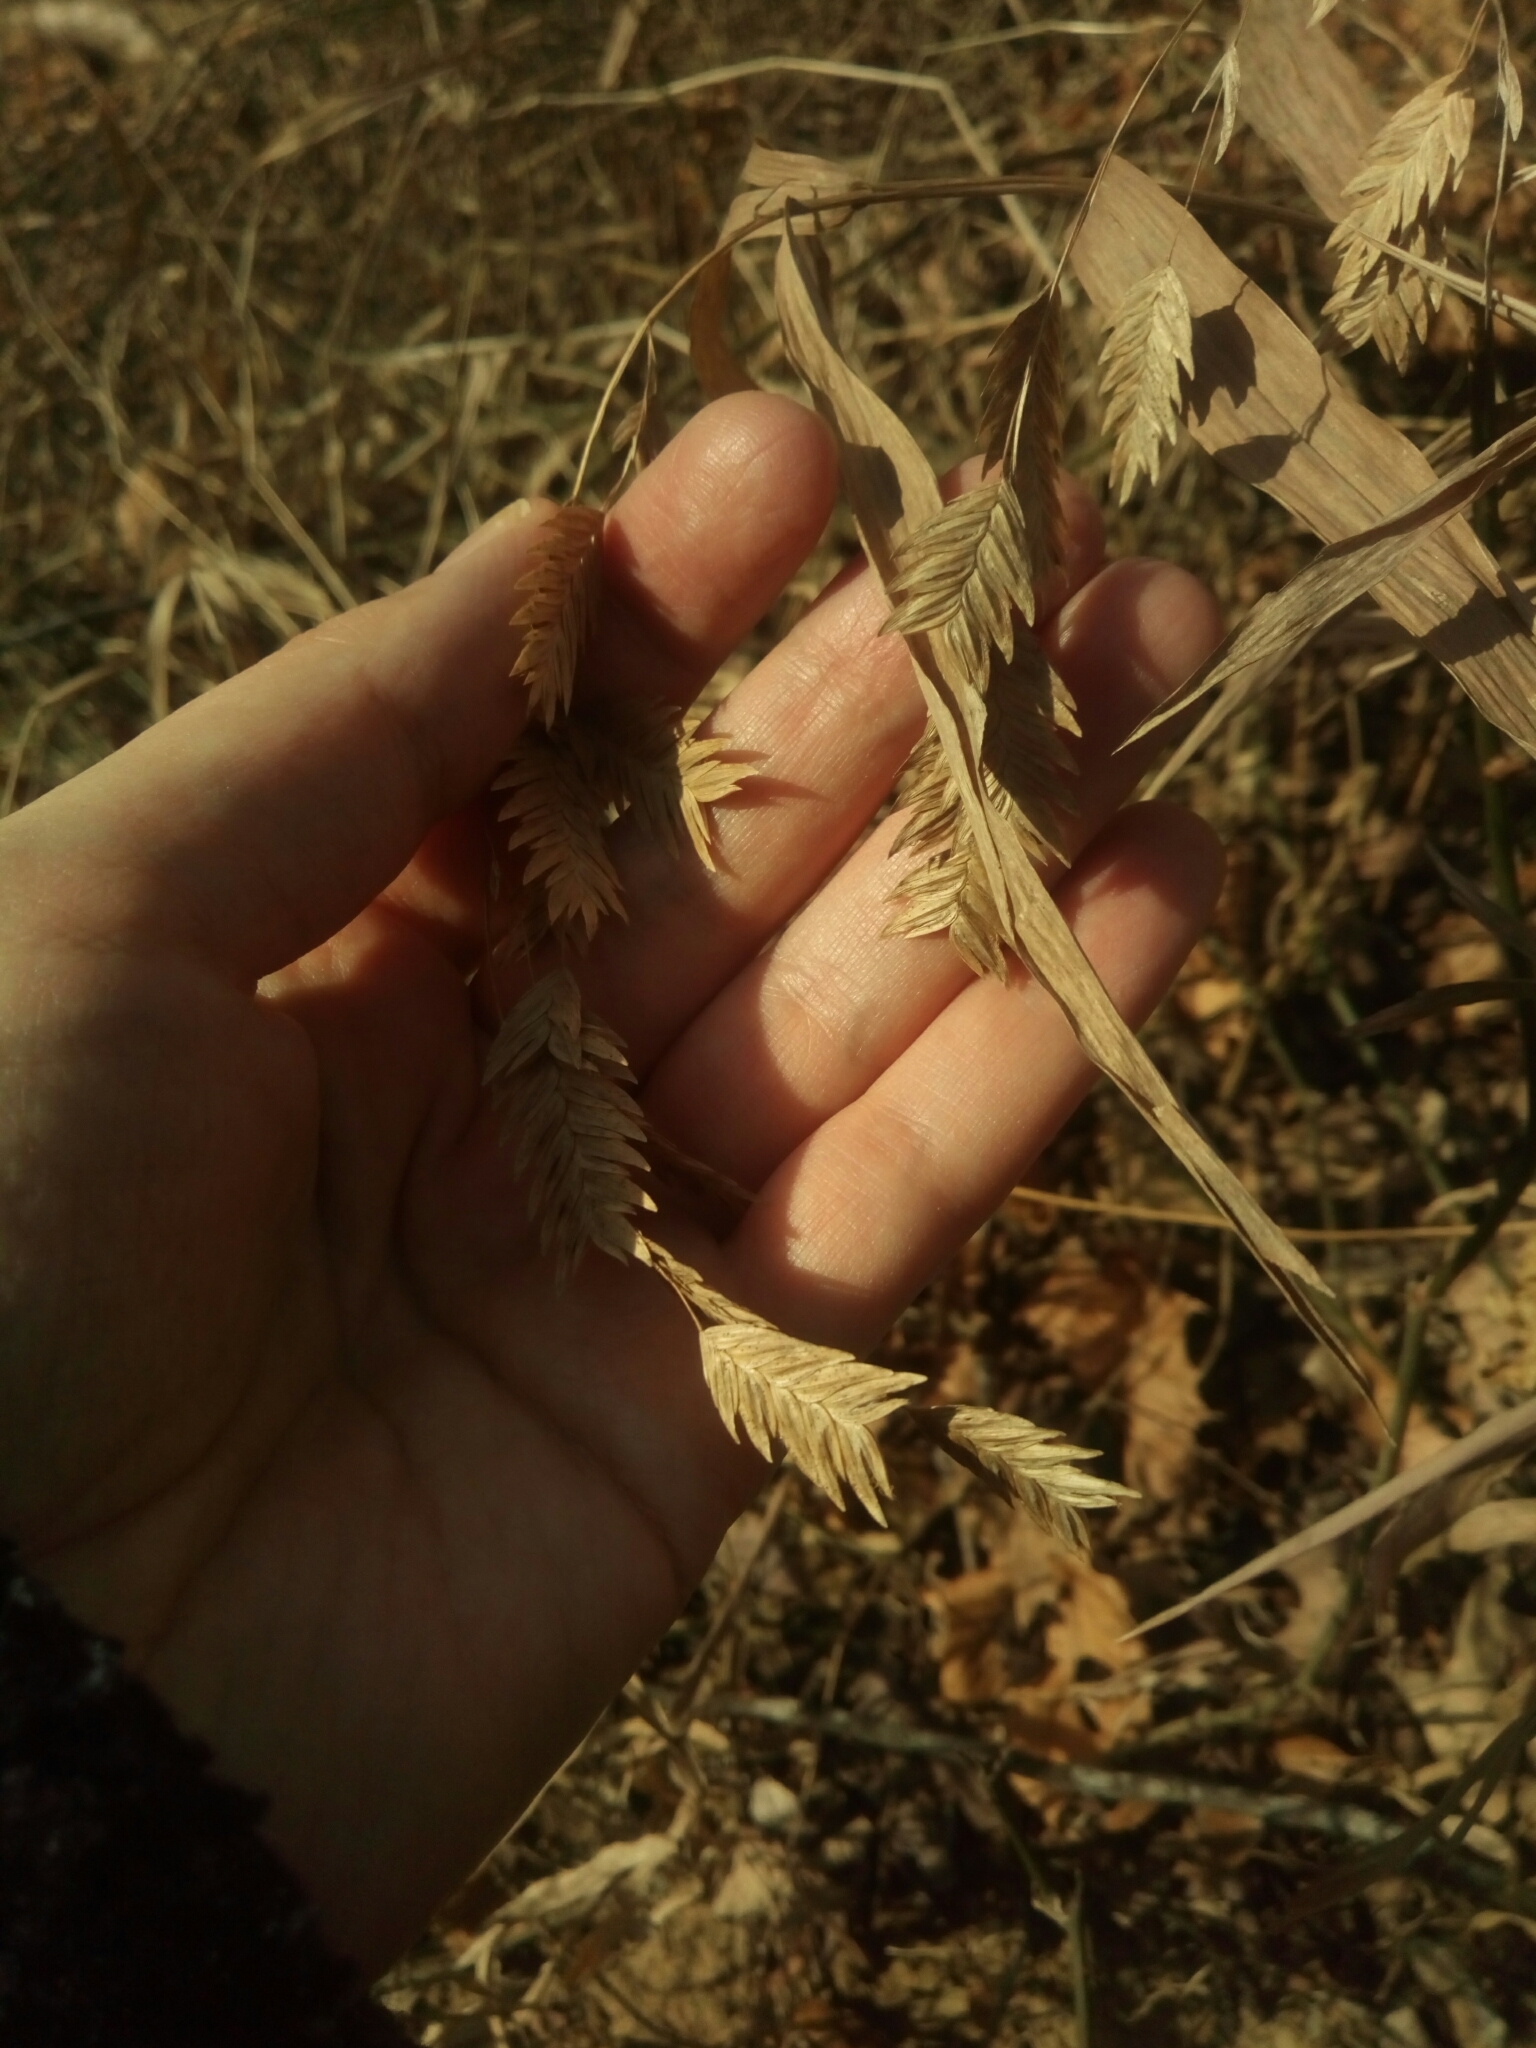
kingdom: Plantae
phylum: Tracheophyta
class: Liliopsida
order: Poales
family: Poaceae
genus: Chasmanthium
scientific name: Chasmanthium latifolium
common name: Broad-leaved chasmanthium
